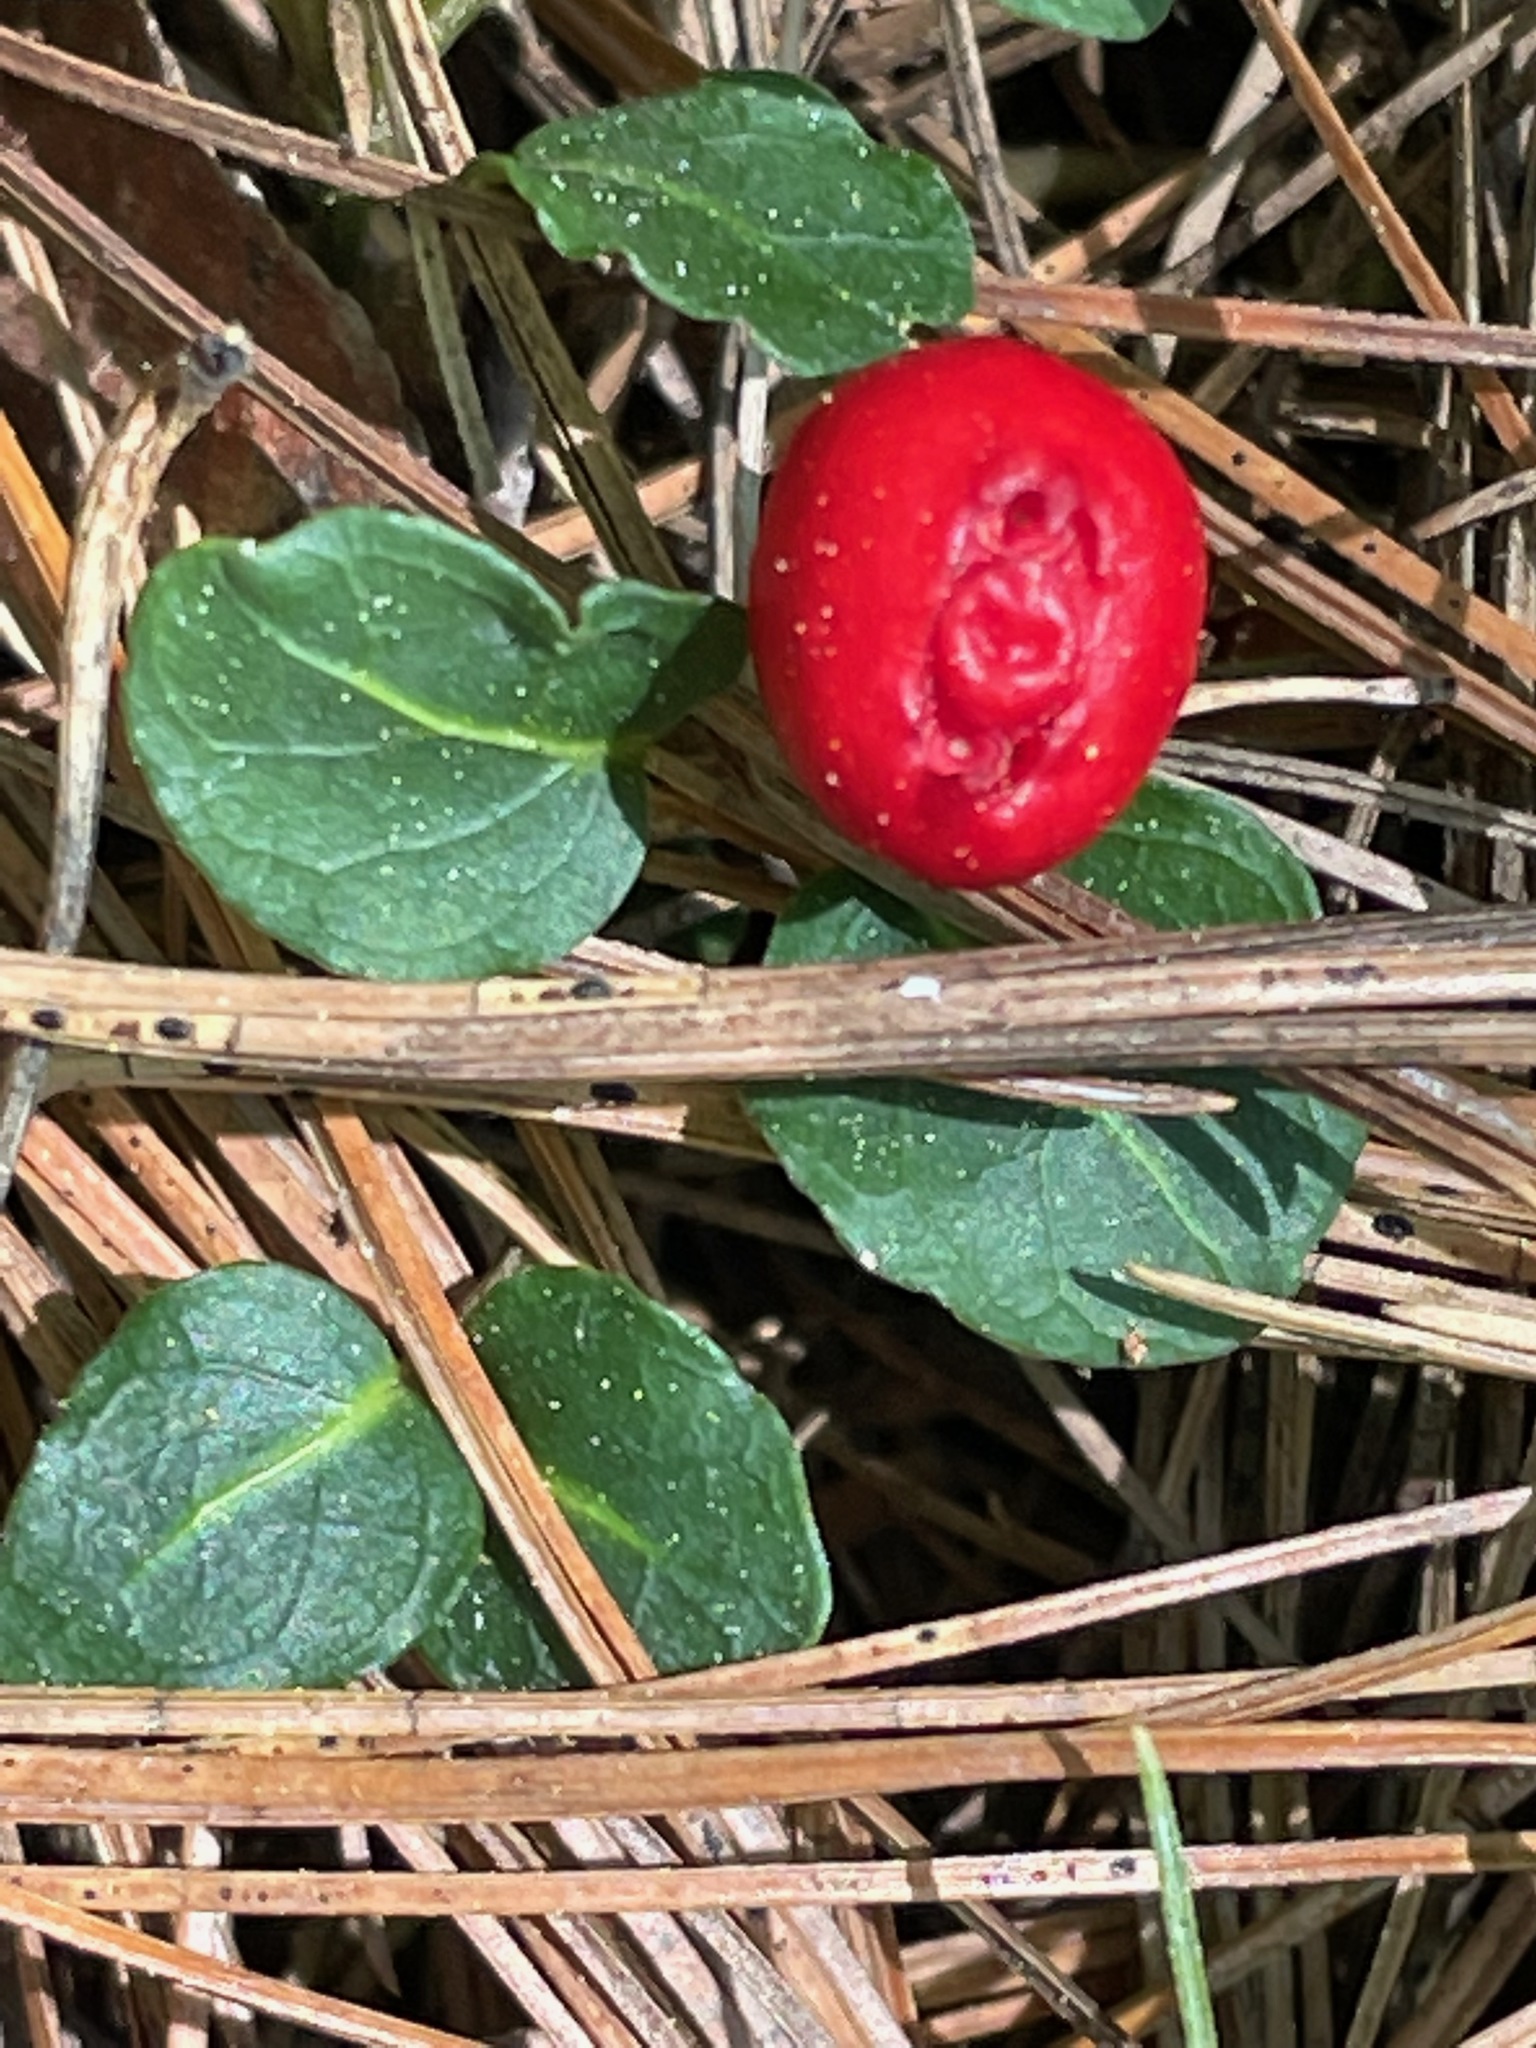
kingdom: Plantae
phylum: Tracheophyta
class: Magnoliopsida
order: Gentianales
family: Rubiaceae
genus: Mitchella
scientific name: Mitchella repens
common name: Partridge-berry
